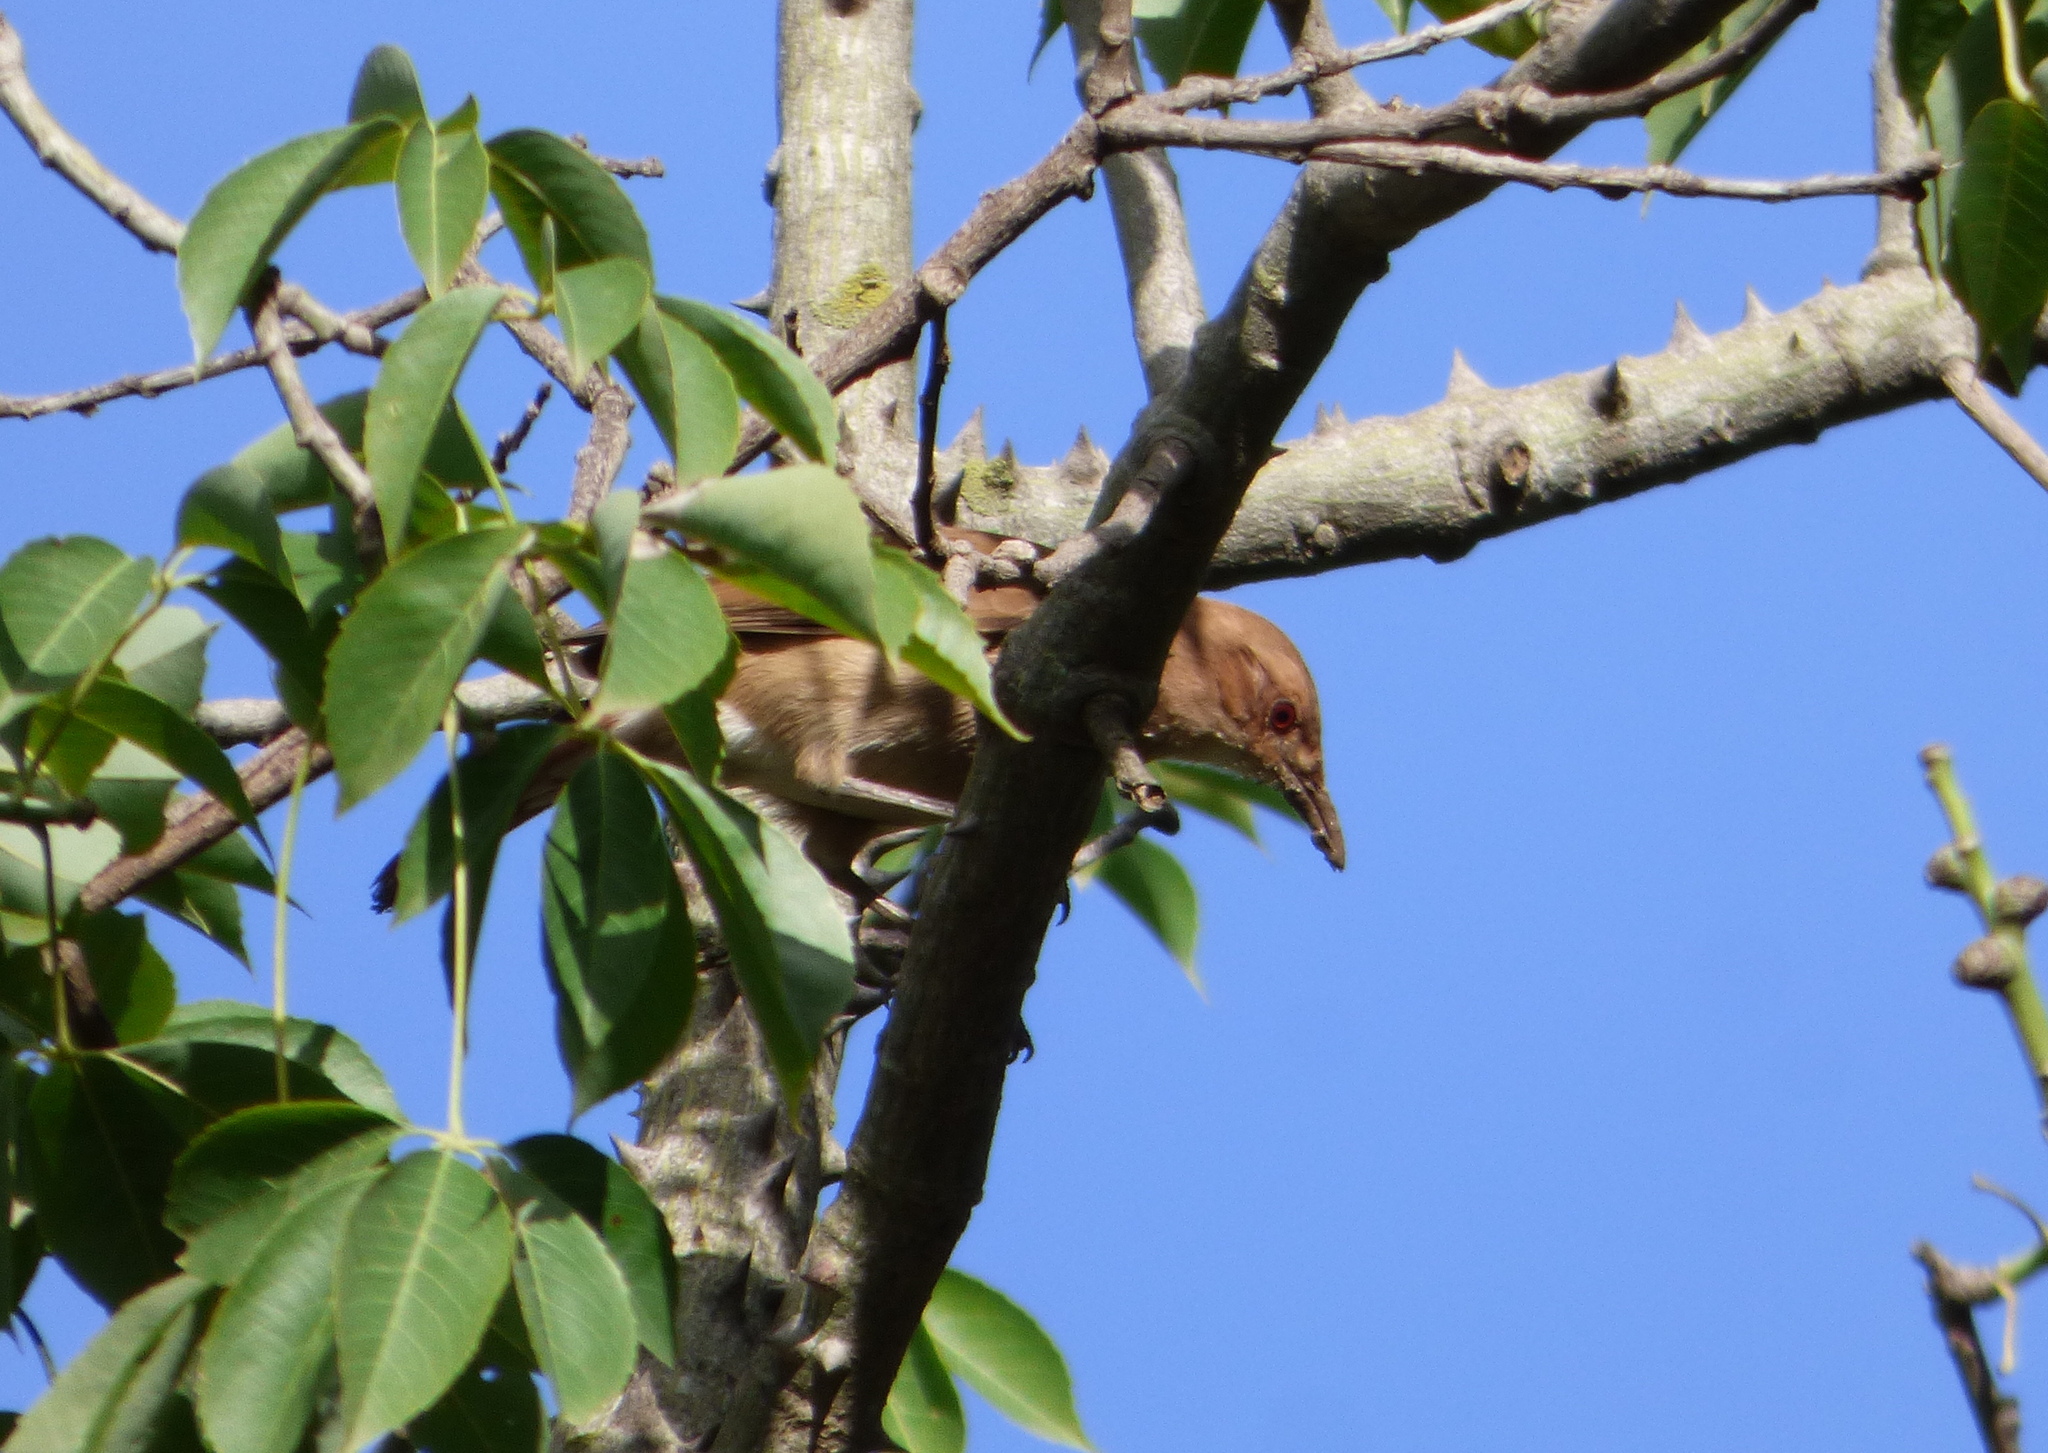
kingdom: Animalia
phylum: Chordata
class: Aves
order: Passeriformes
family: Furnariidae
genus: Furnarius
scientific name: Furnarius rufus
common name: Rufous hornero
